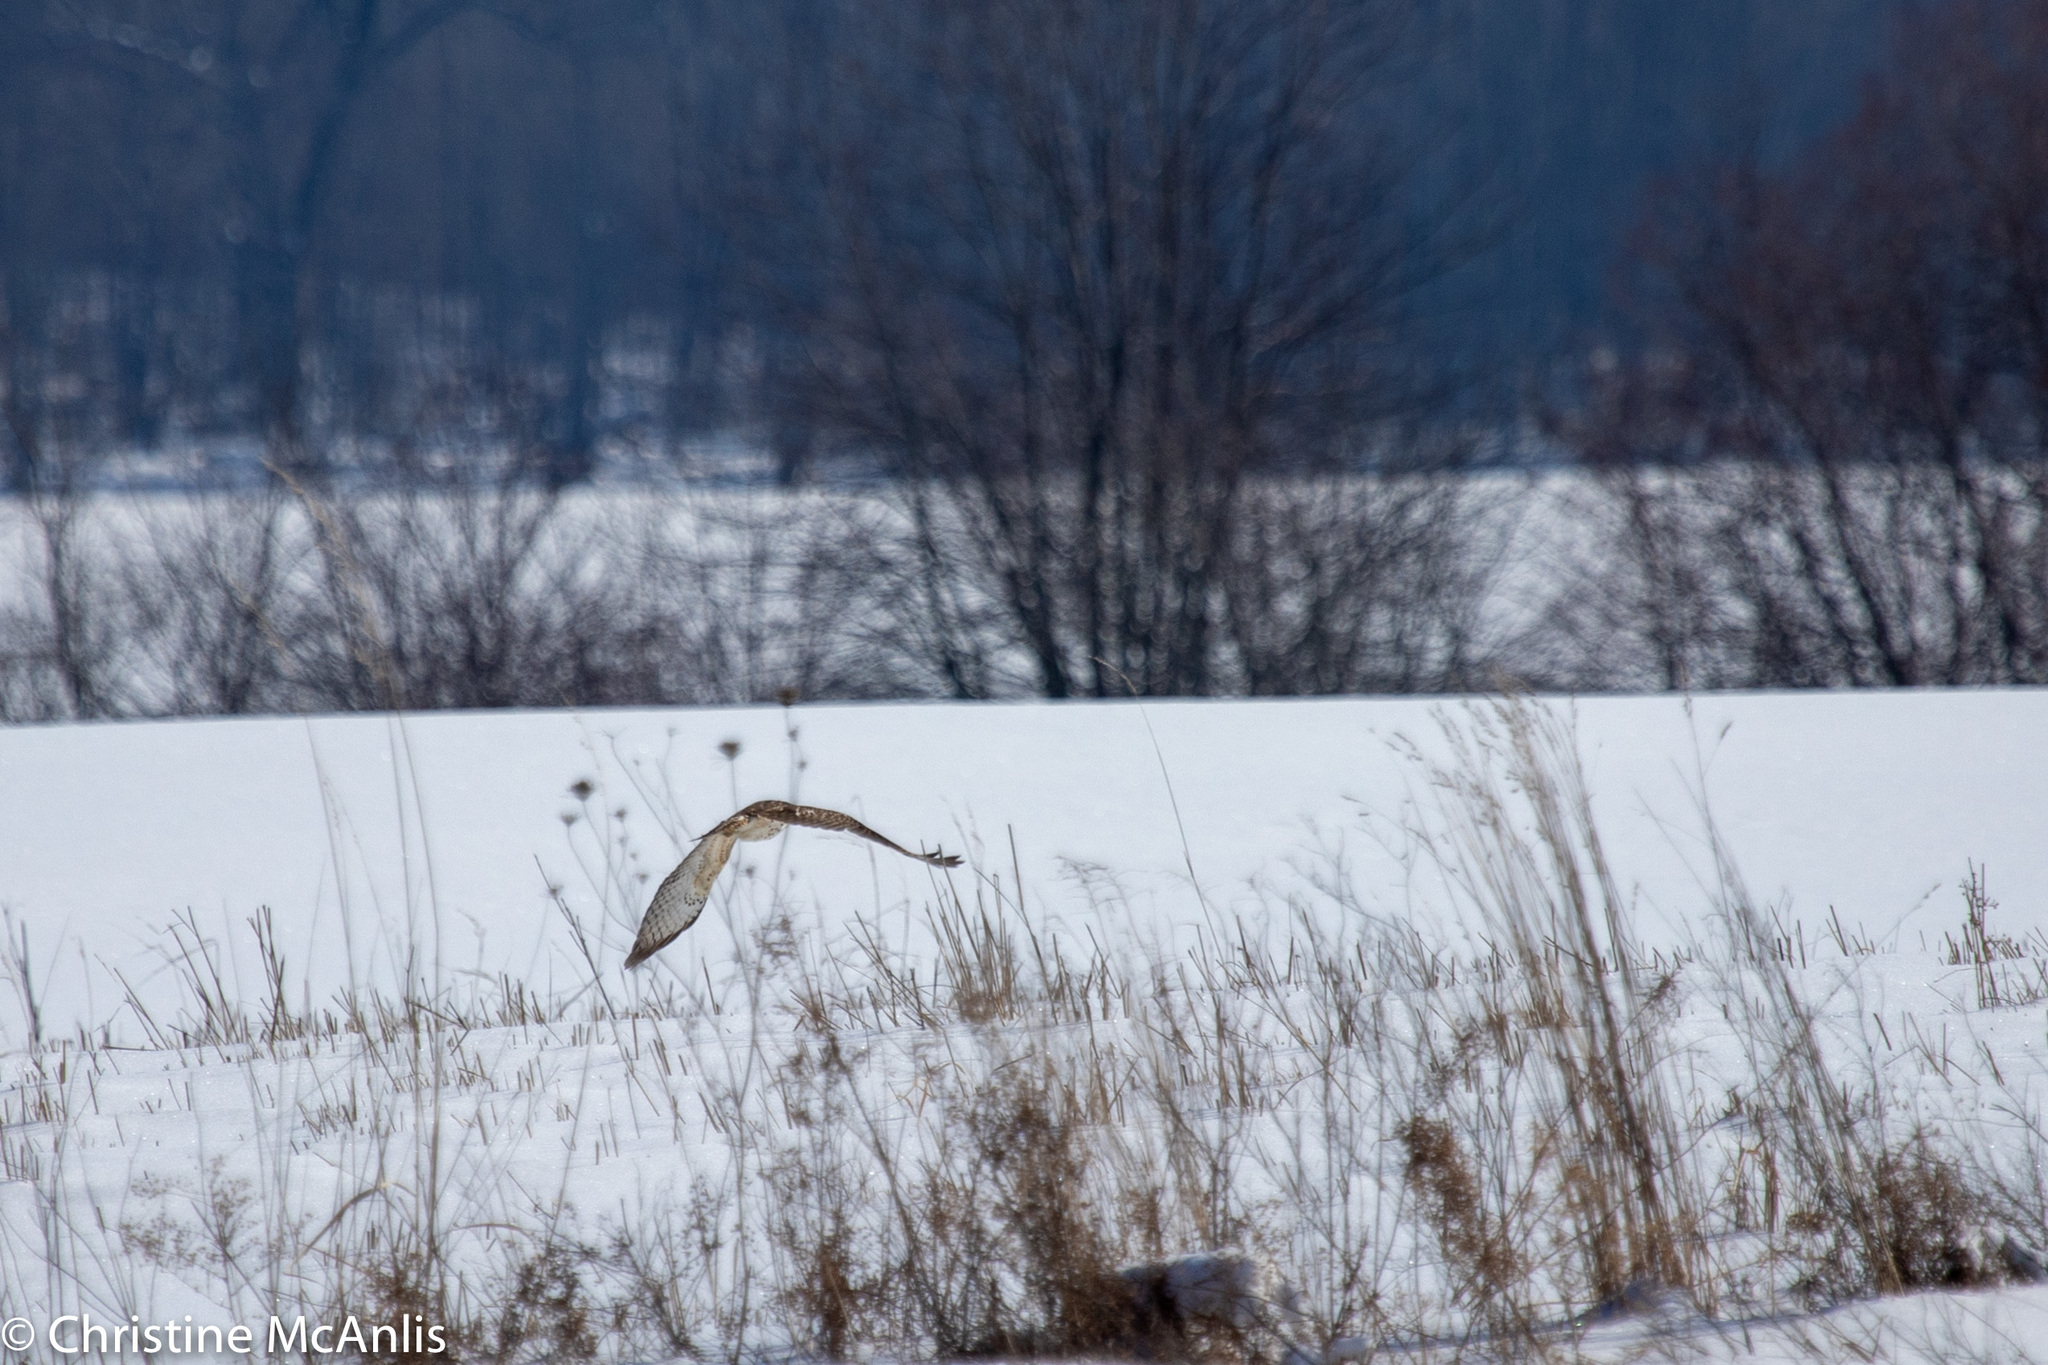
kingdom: Animalia
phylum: Chordata
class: Aves
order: Accipitriformes
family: Accipitridae
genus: Buteo
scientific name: Buteo lineatus
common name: Red-shouldered hawk
